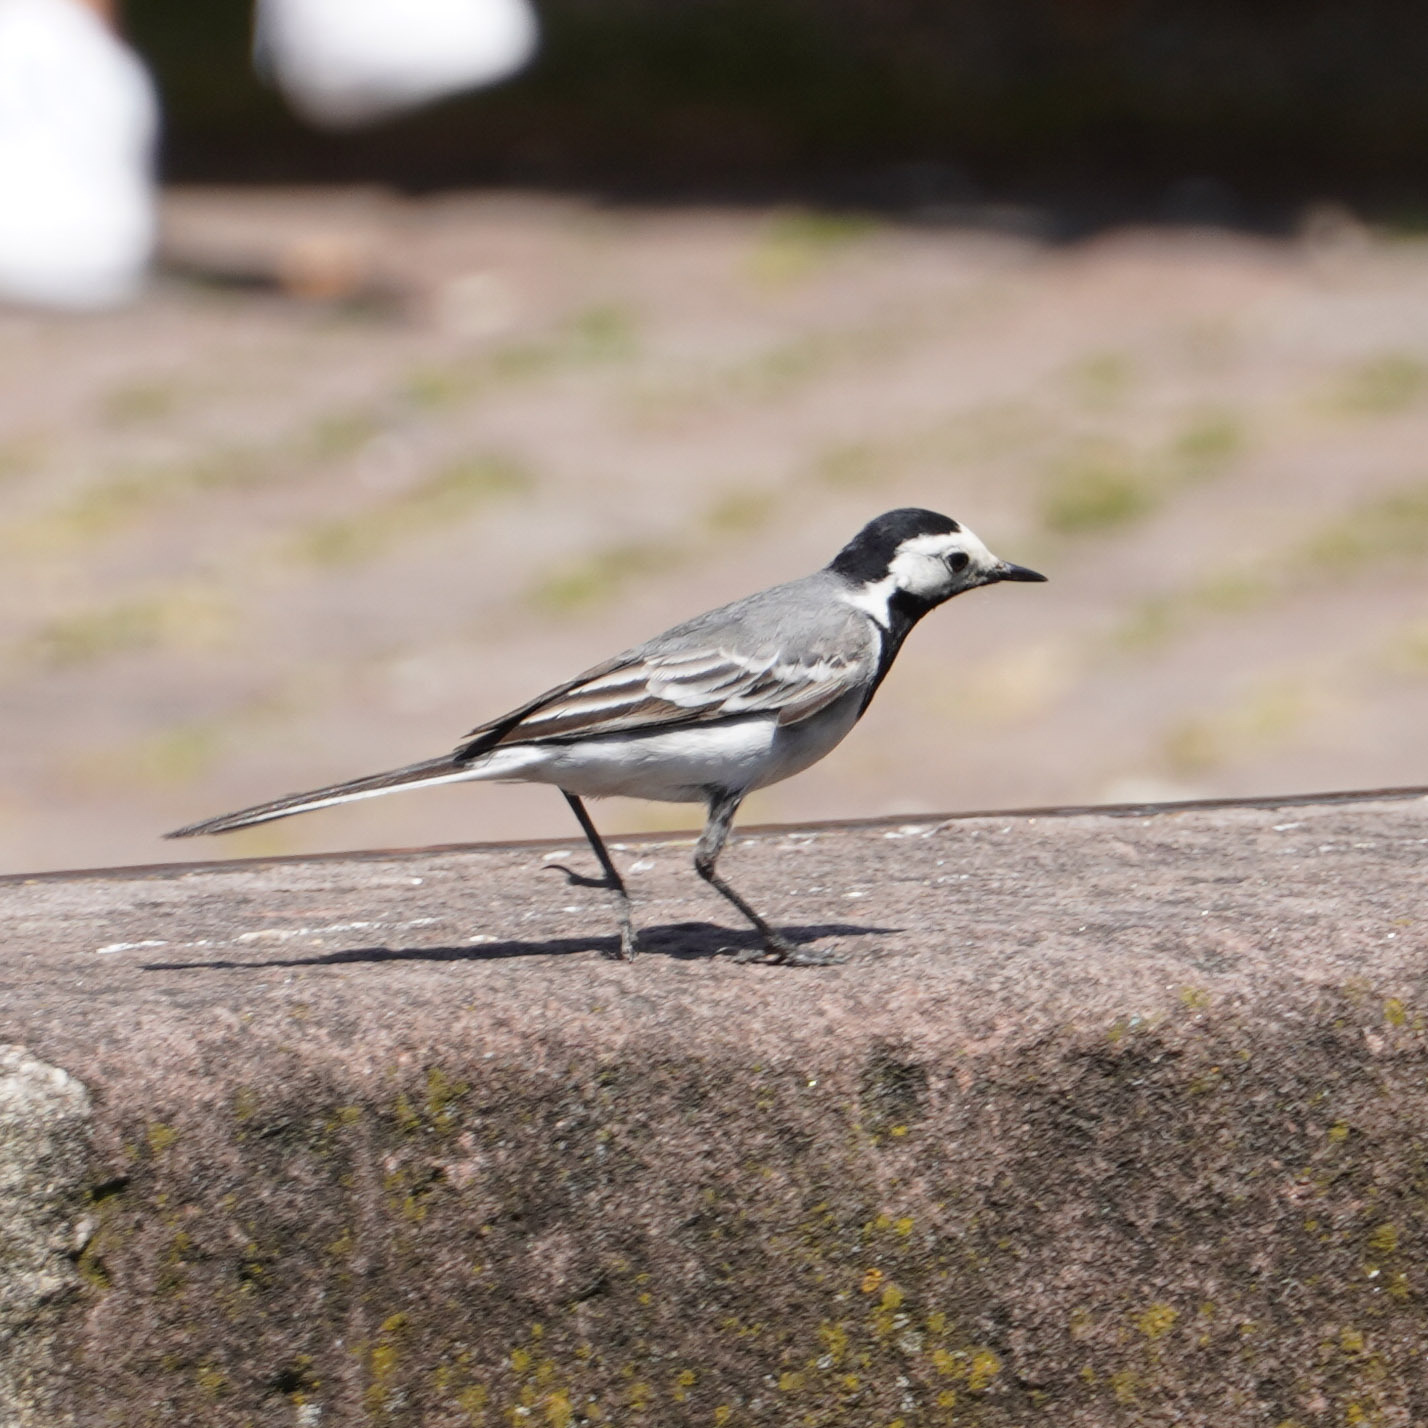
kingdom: Animalia
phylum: Chordata
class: Aves
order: Passeriformes
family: Motacillidae
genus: Motacilla
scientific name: Motacilla alba
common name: White wagtail
